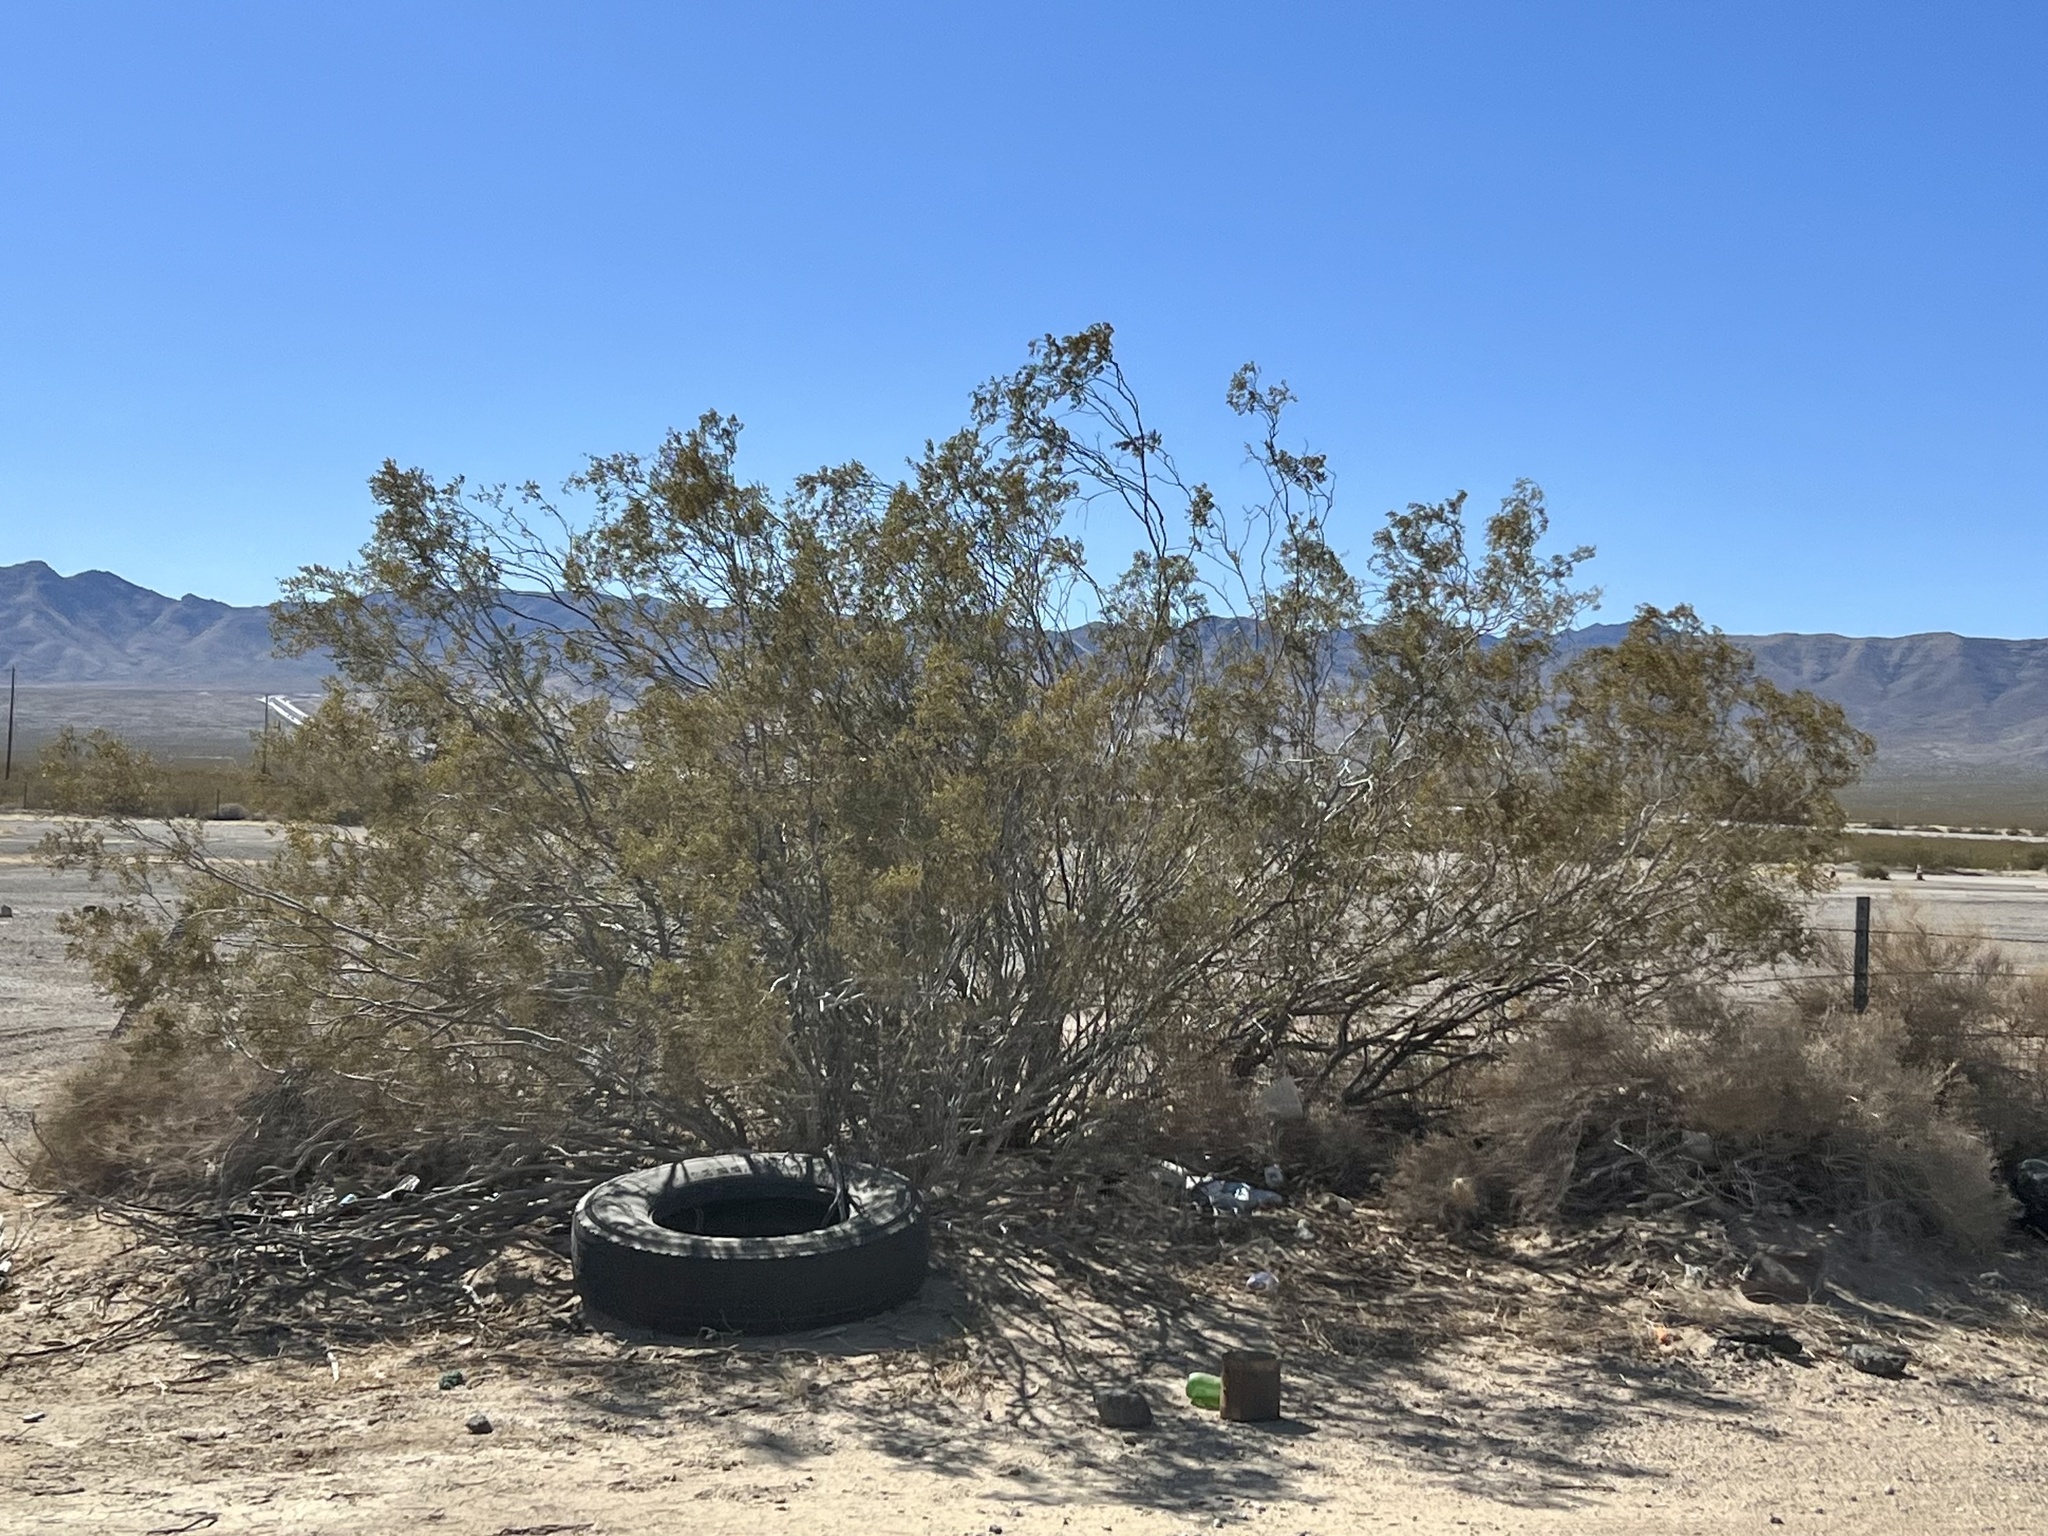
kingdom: Plantae
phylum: Tracheophyta
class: Magnoliopsida
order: Zygophyllales
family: Zygophyllaceae
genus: Larrea
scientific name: Larrea tridentata
